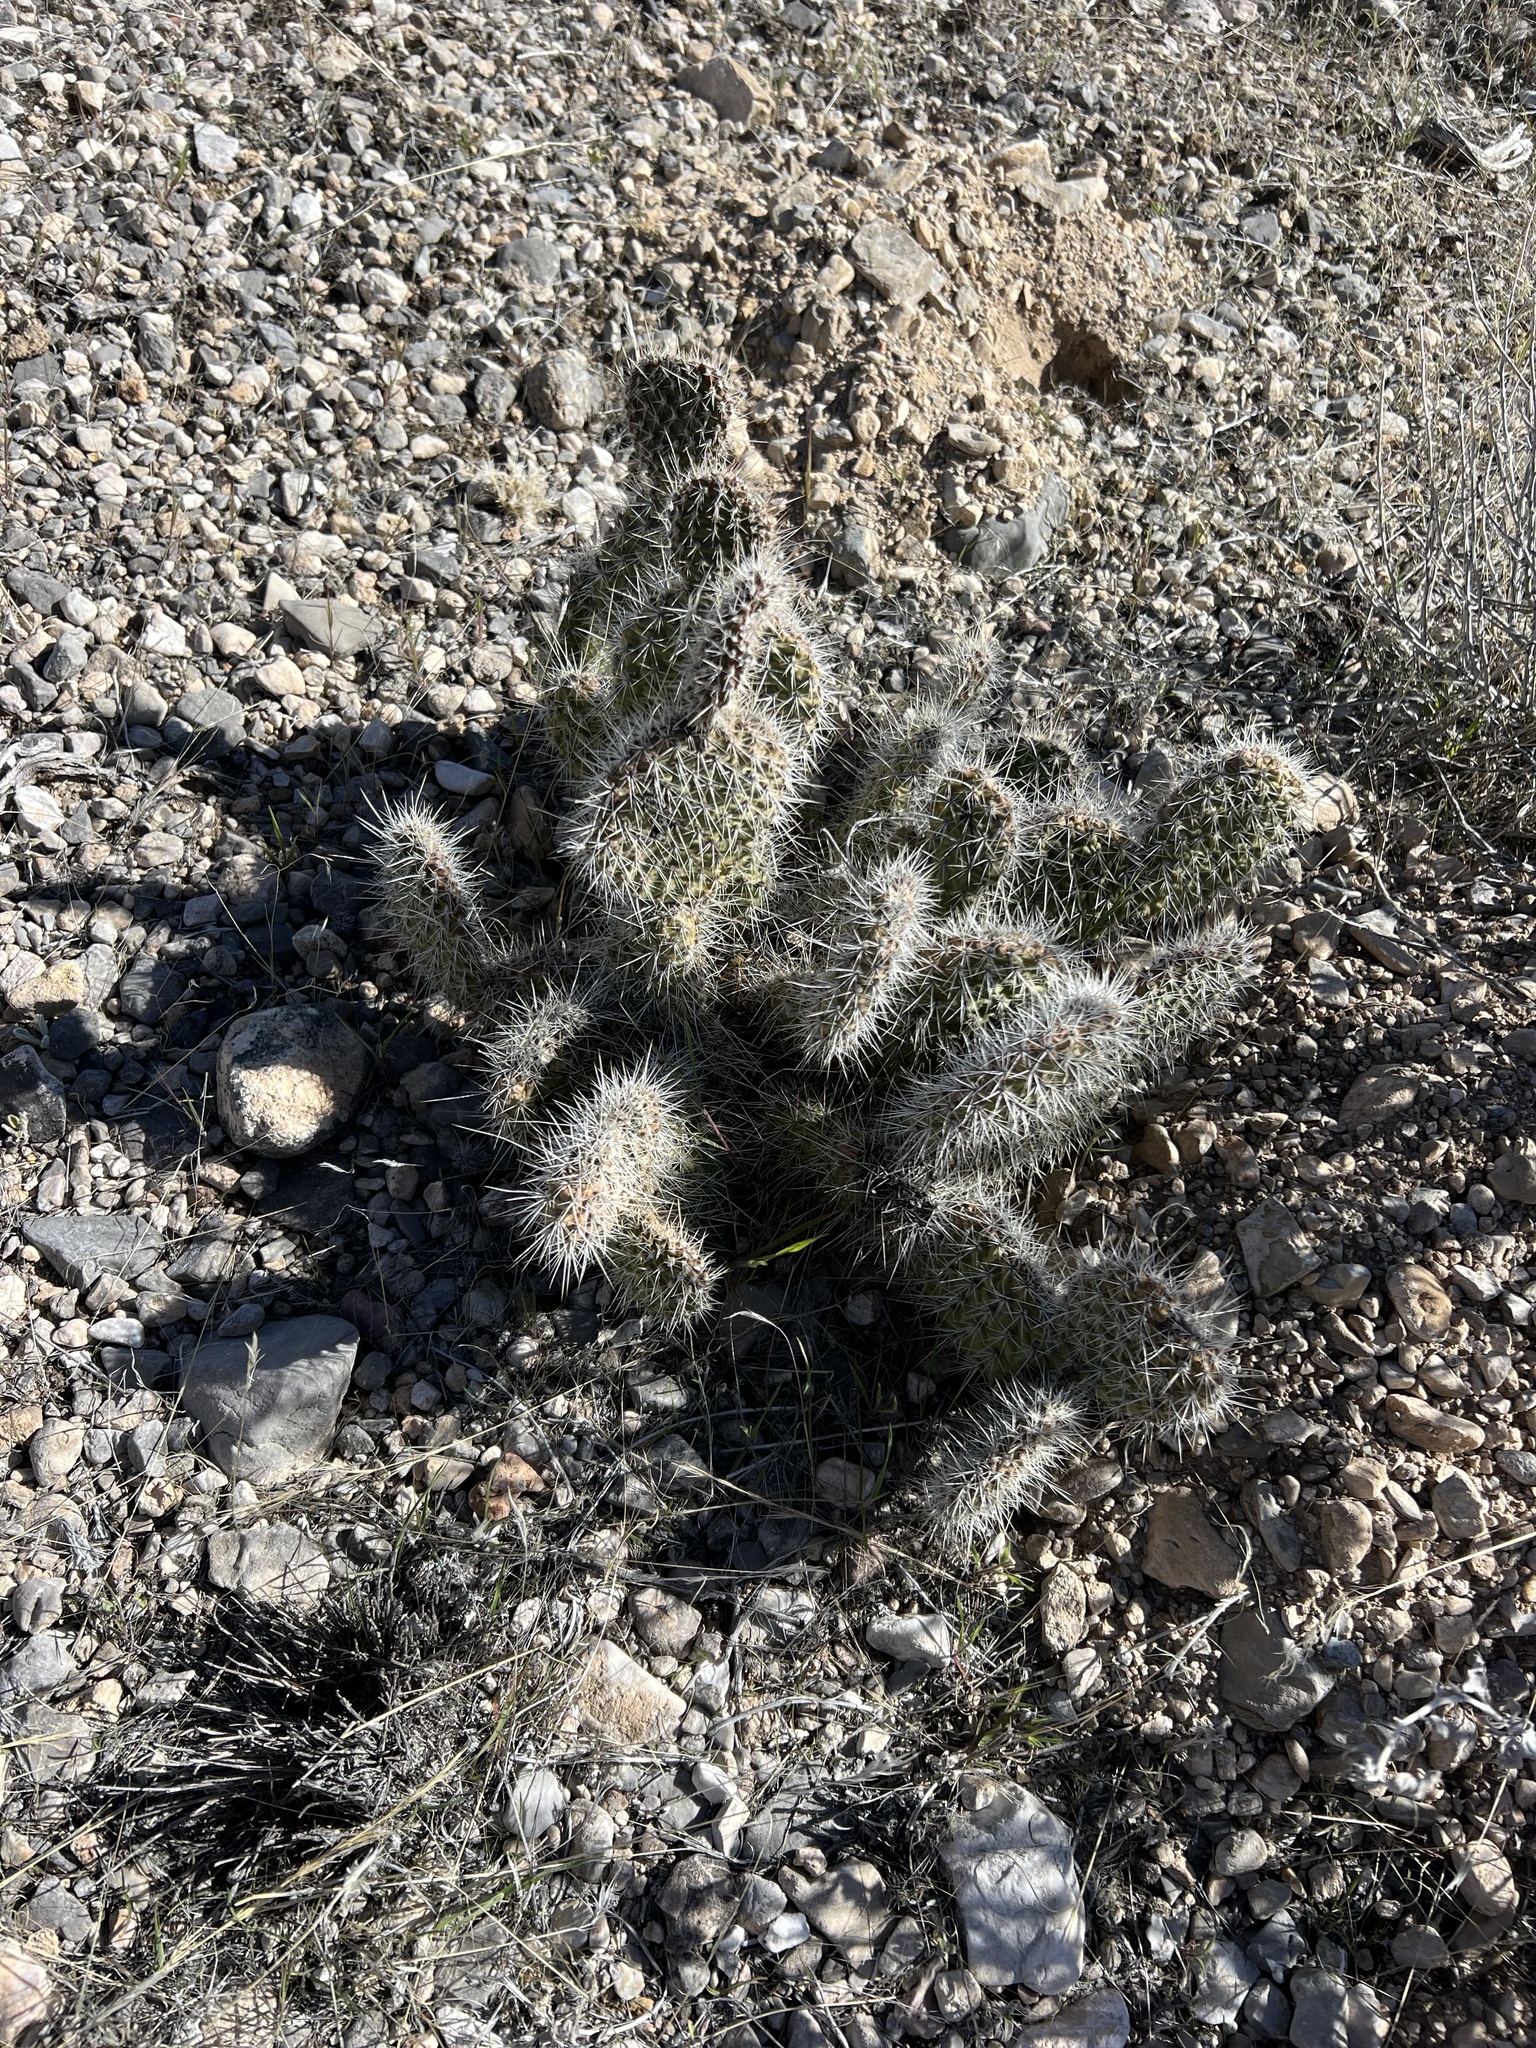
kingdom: Plantae
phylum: Tracheophyta
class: Magnoliopsida
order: Caryophyllales
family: Cactaceae
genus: Opuntia
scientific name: Opuntia polyacantha
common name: Plains prickly-pear
